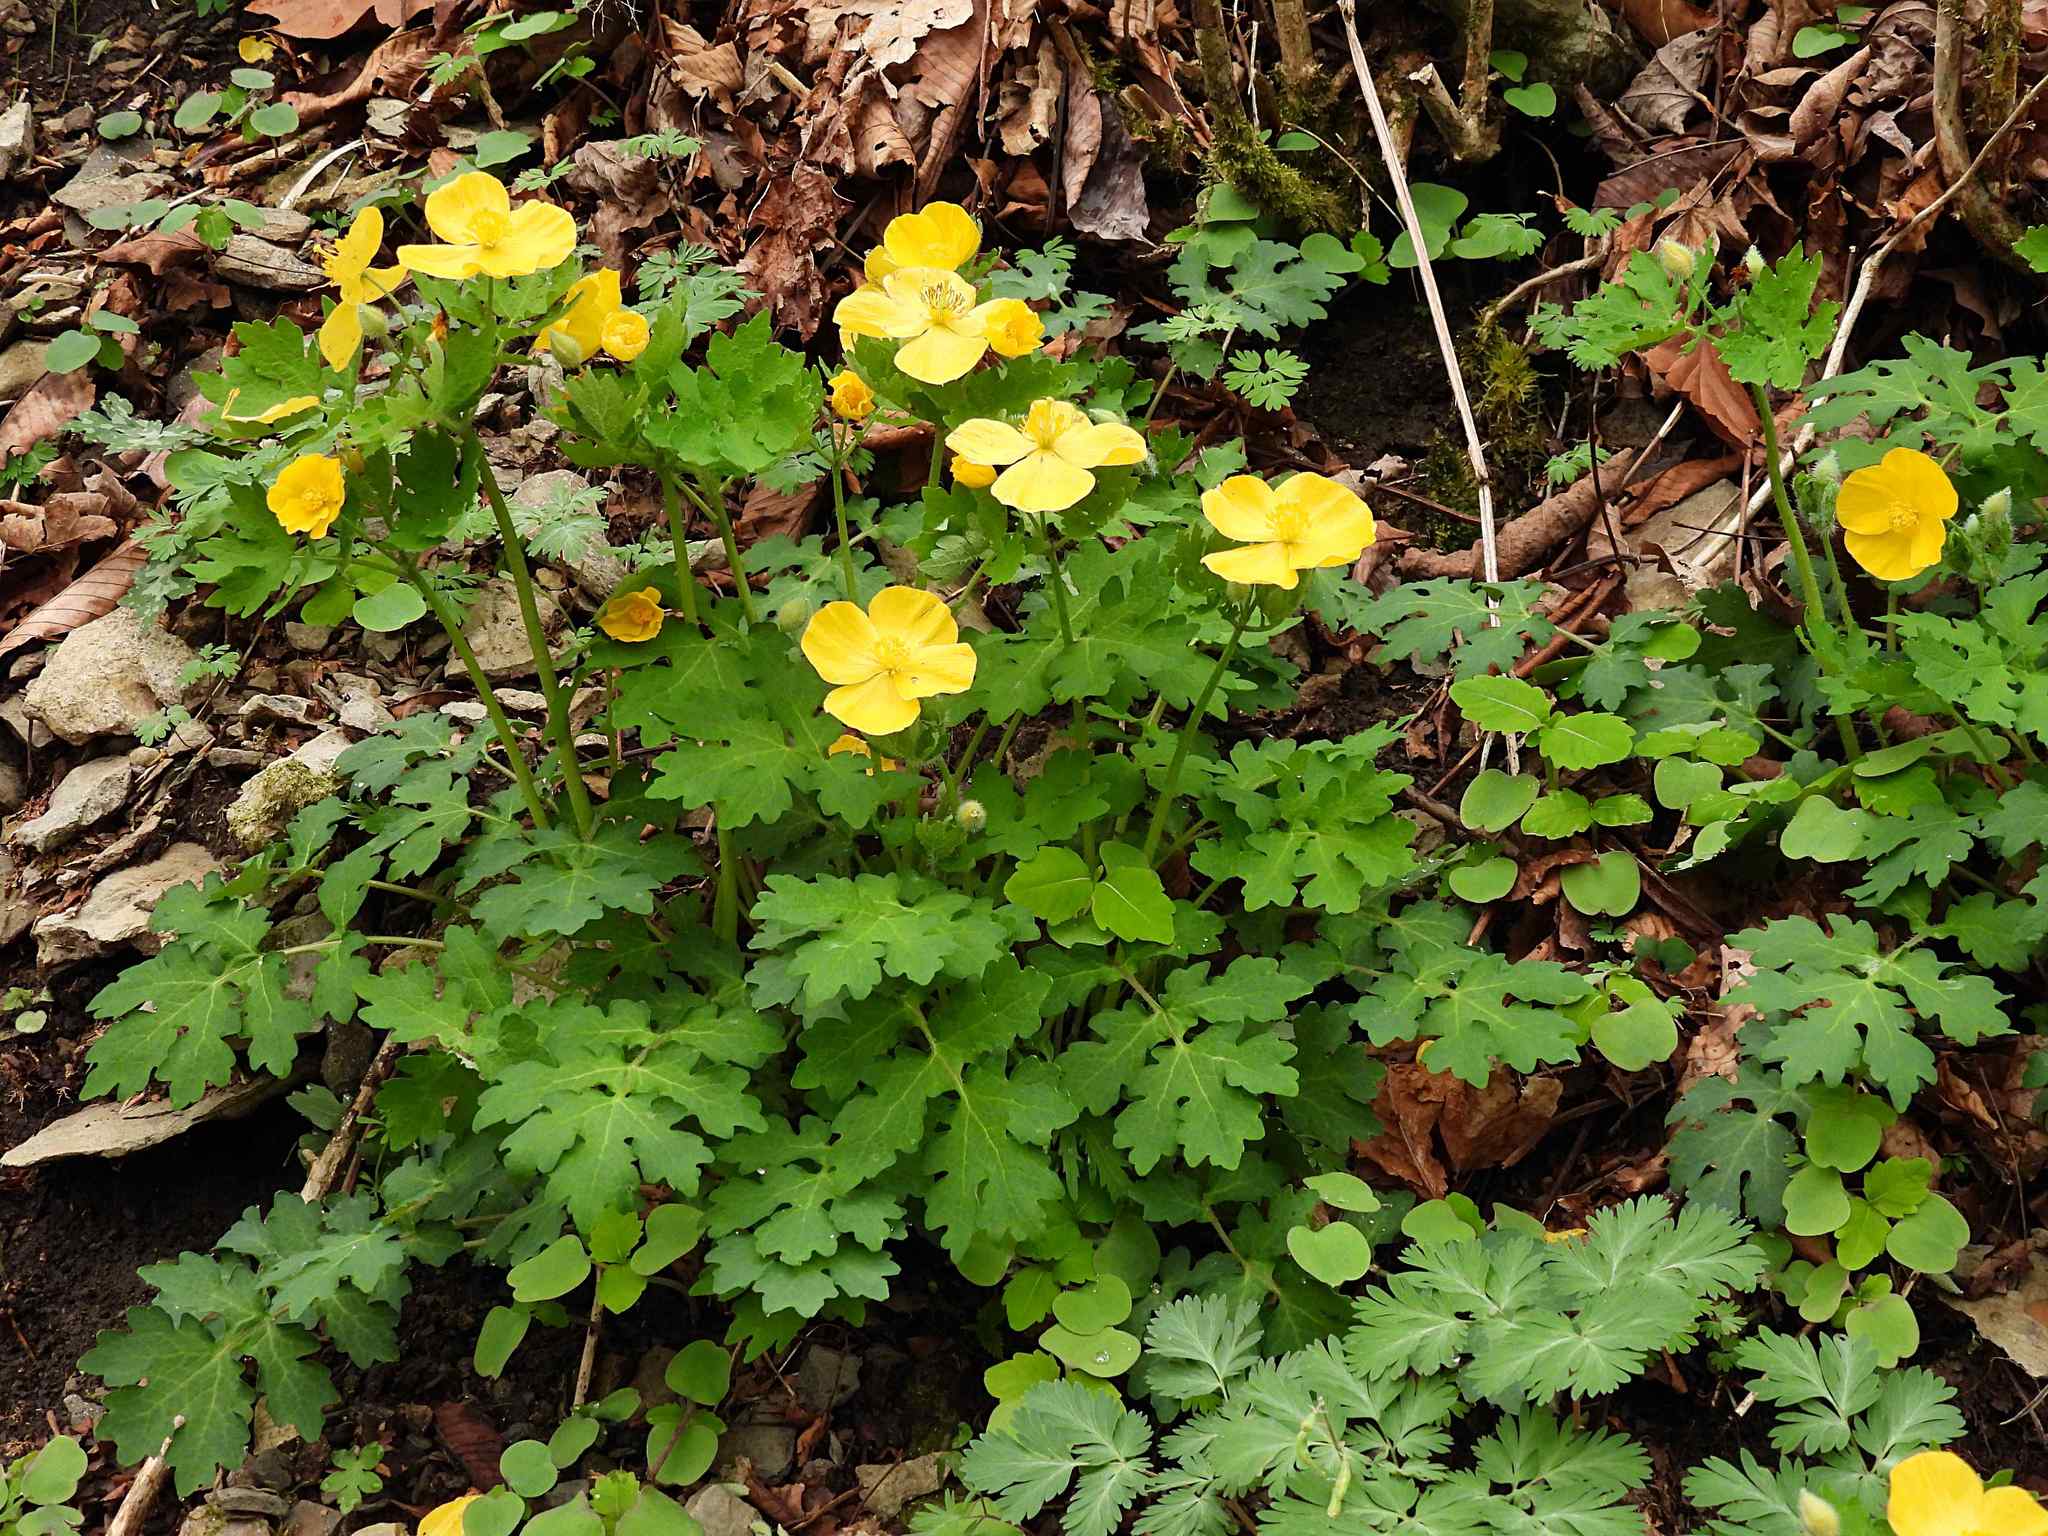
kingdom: Plantae
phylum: Tracheophyta
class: Magnoliopsida
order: Ranunculales
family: Papaveraceae
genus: Stylophorum
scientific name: Stylophorum diphyllum
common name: Celandine poppy
